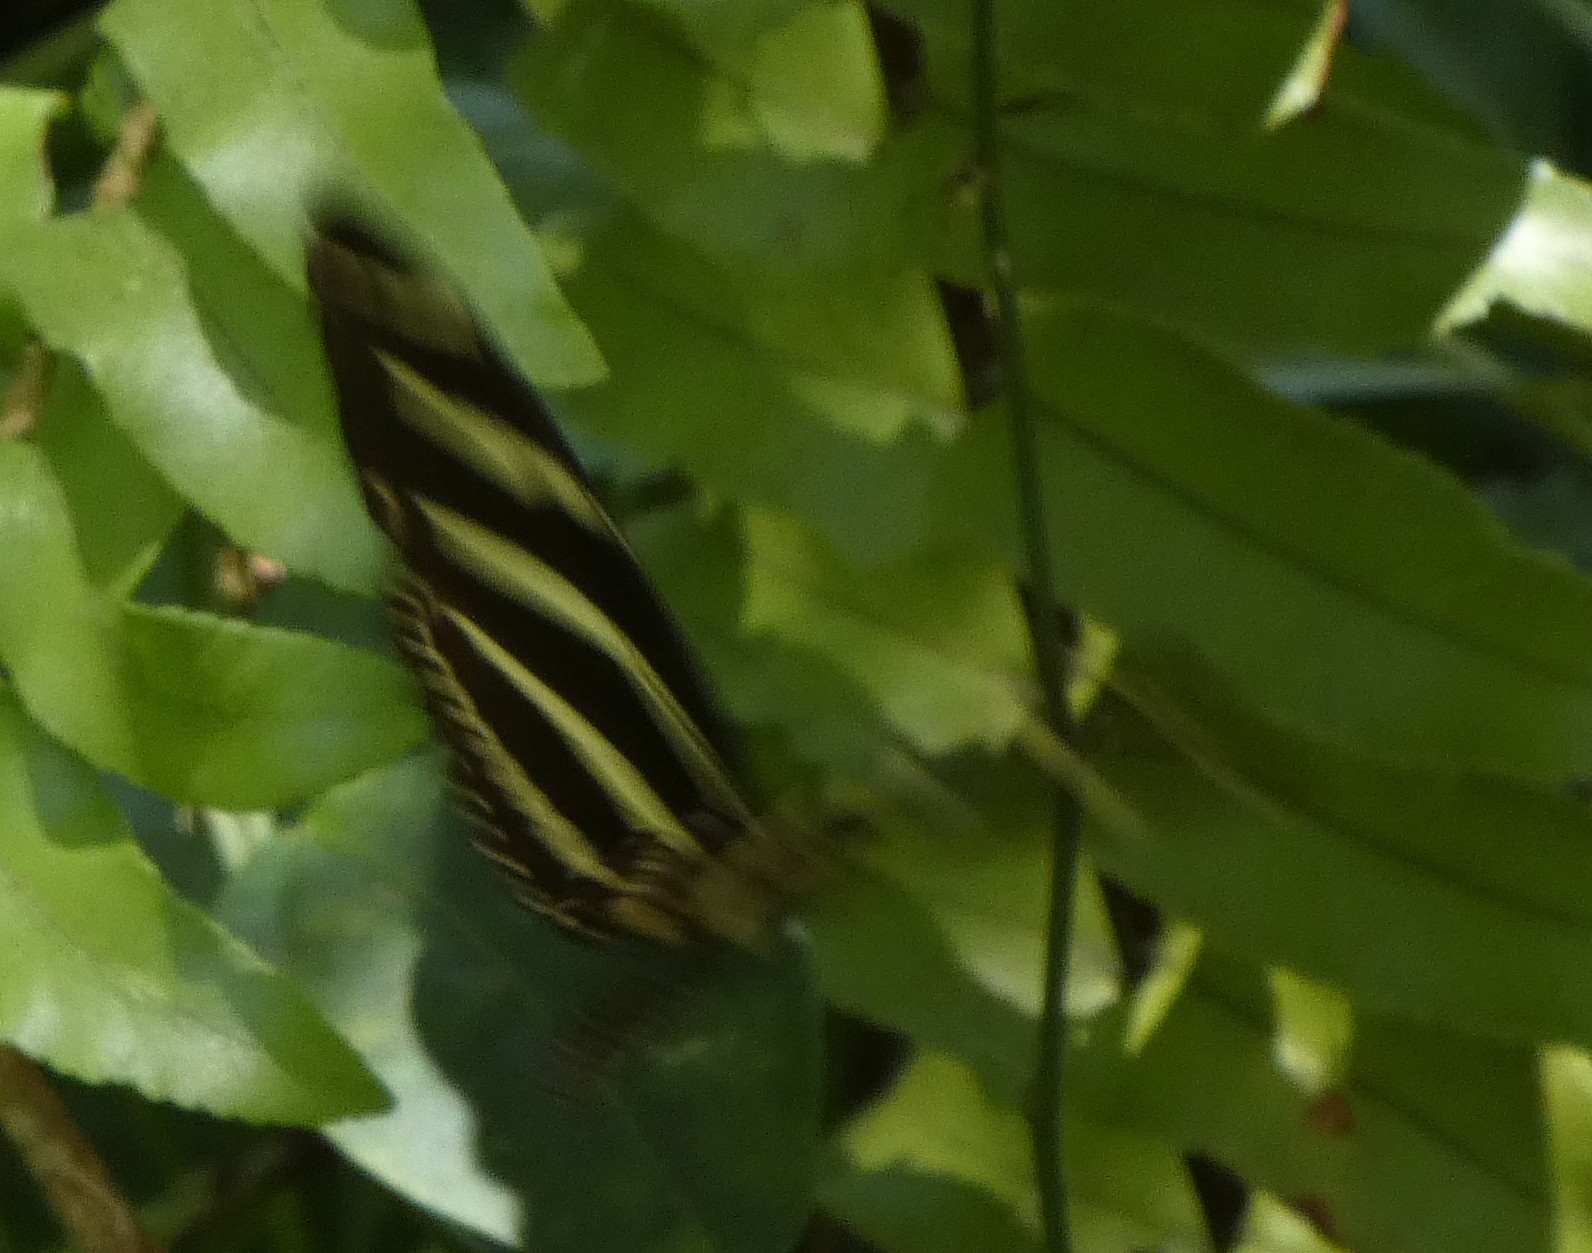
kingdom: Animalia
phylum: Arthropoda
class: Insecta
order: Lepidoptera
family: Nymphalidae
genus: Heliconius
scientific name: Heliconius charithonia
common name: Zebra long wing
